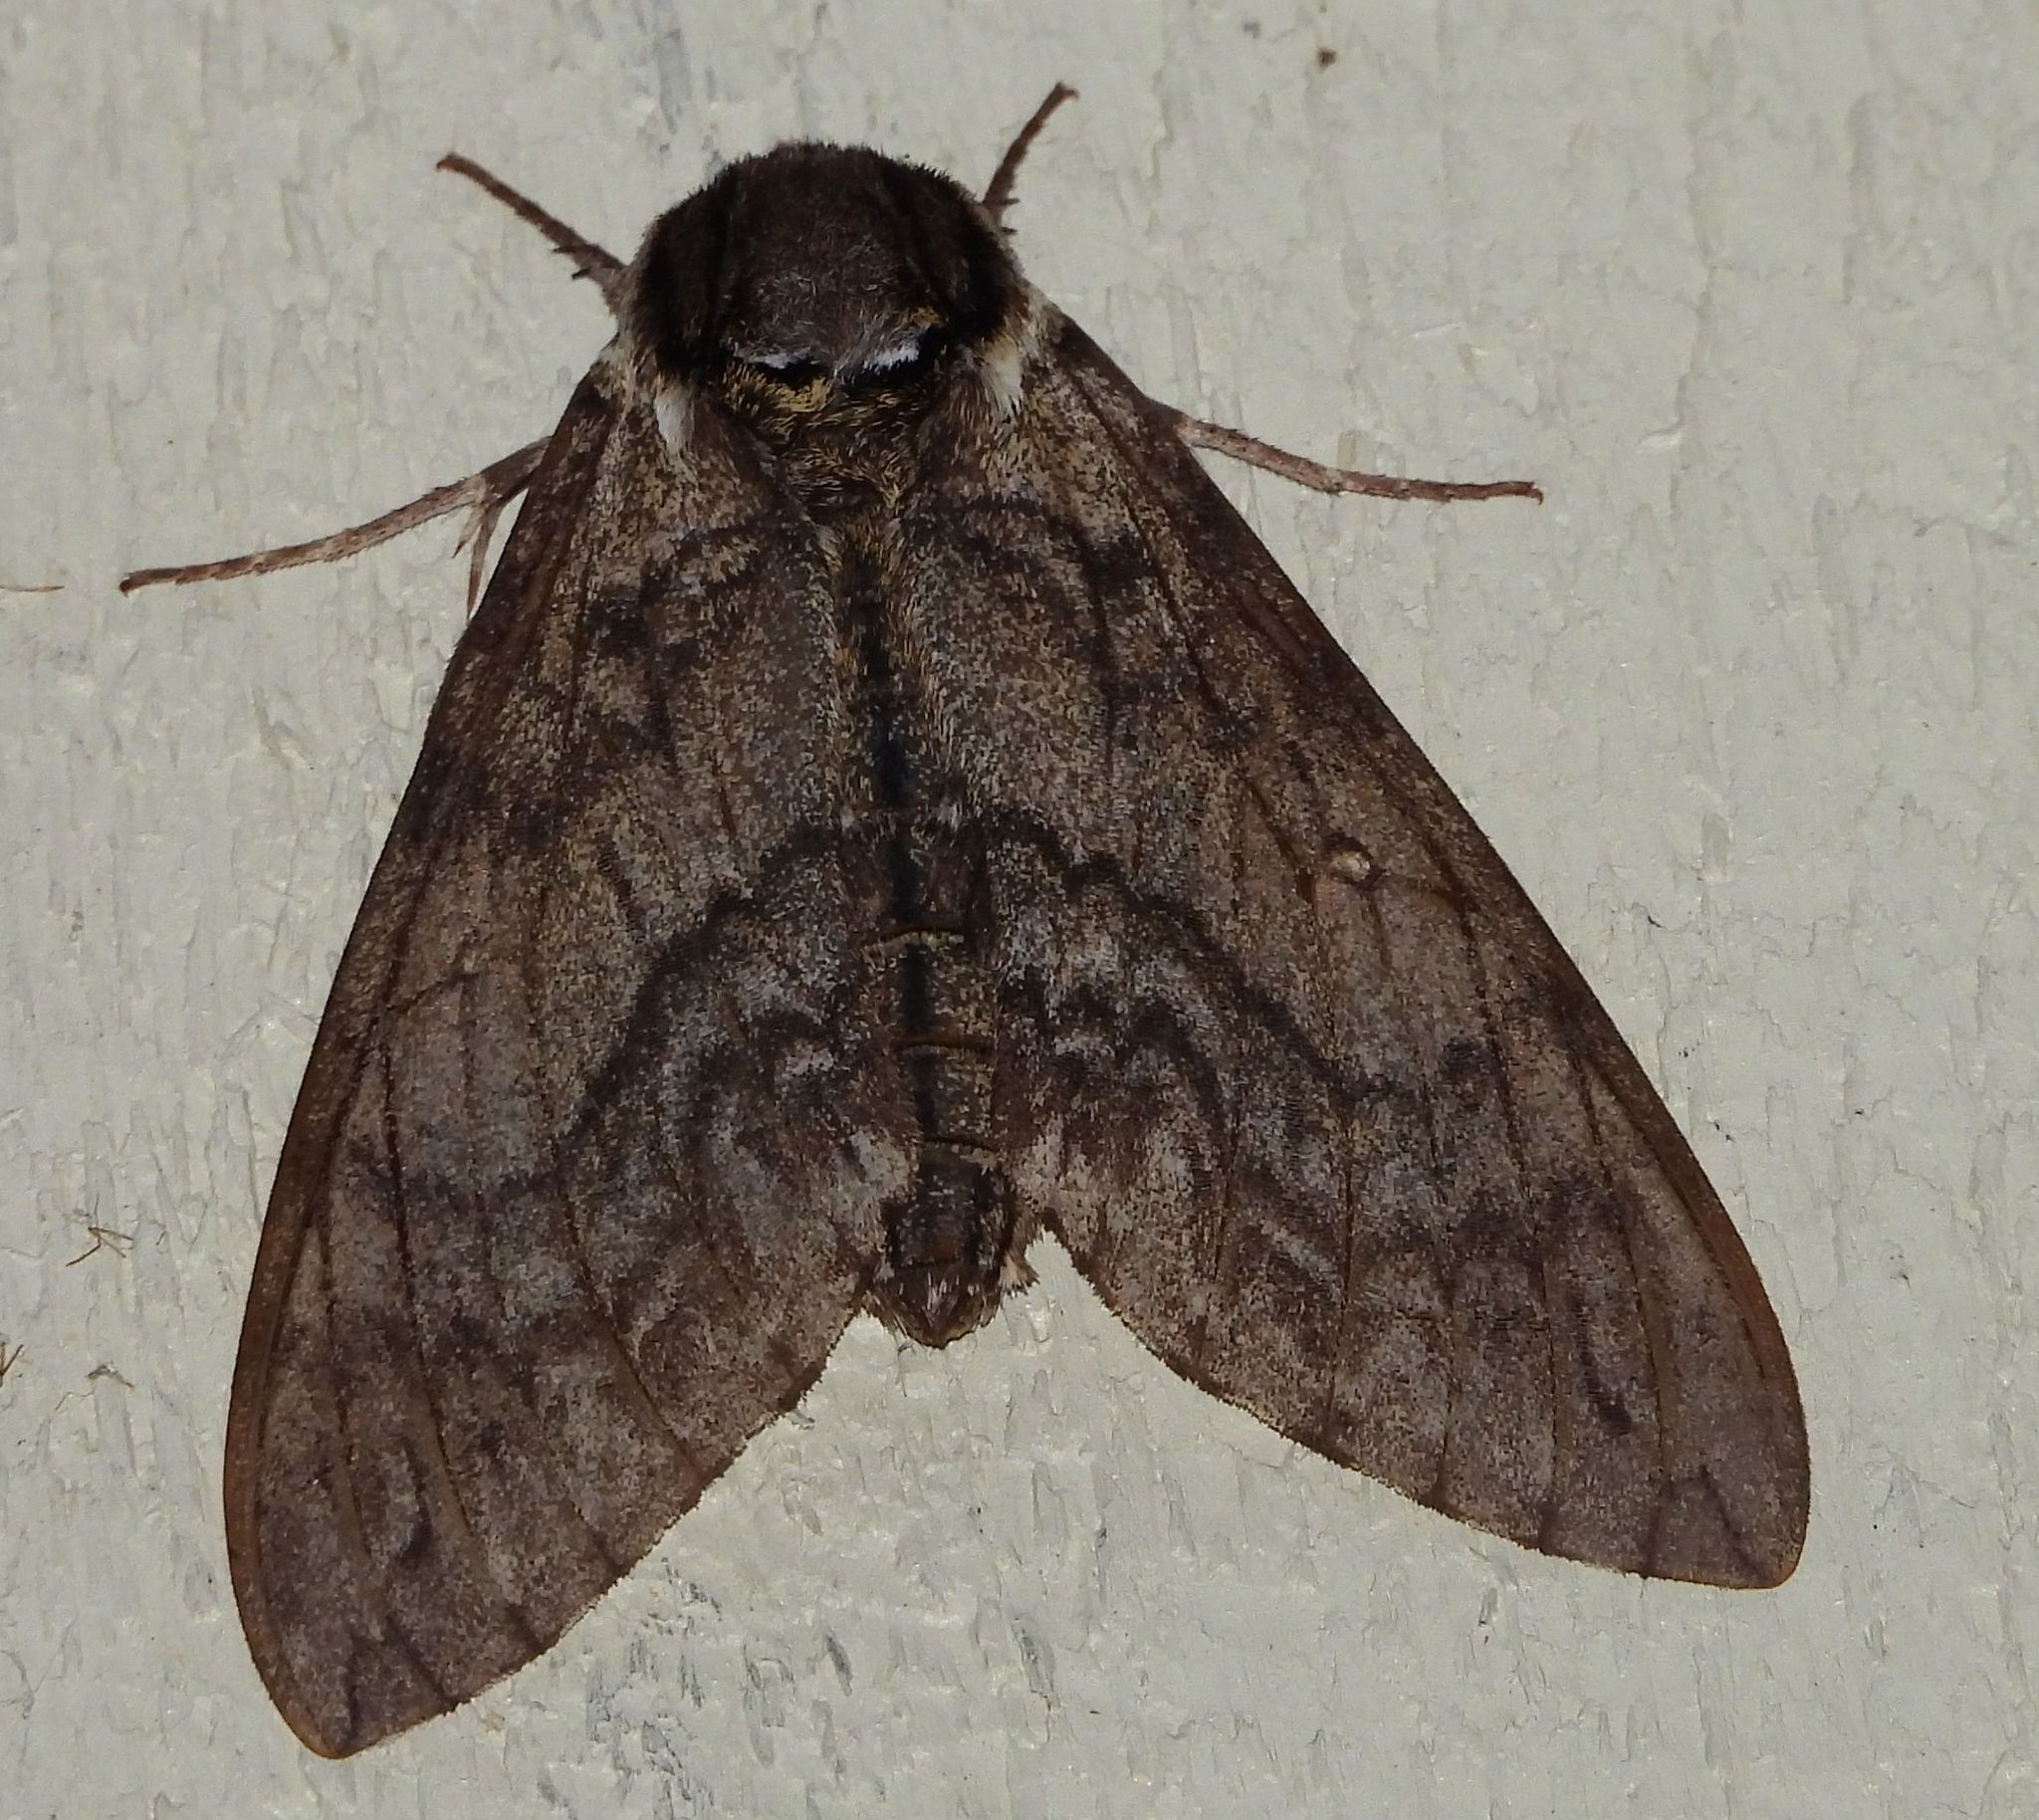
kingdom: Animalia
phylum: Arthropoda
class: Insecta
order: Lepidoptera
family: Sphingidae
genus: Ceratomia
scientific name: Ceratomia undulosa
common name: Waved sphinx
